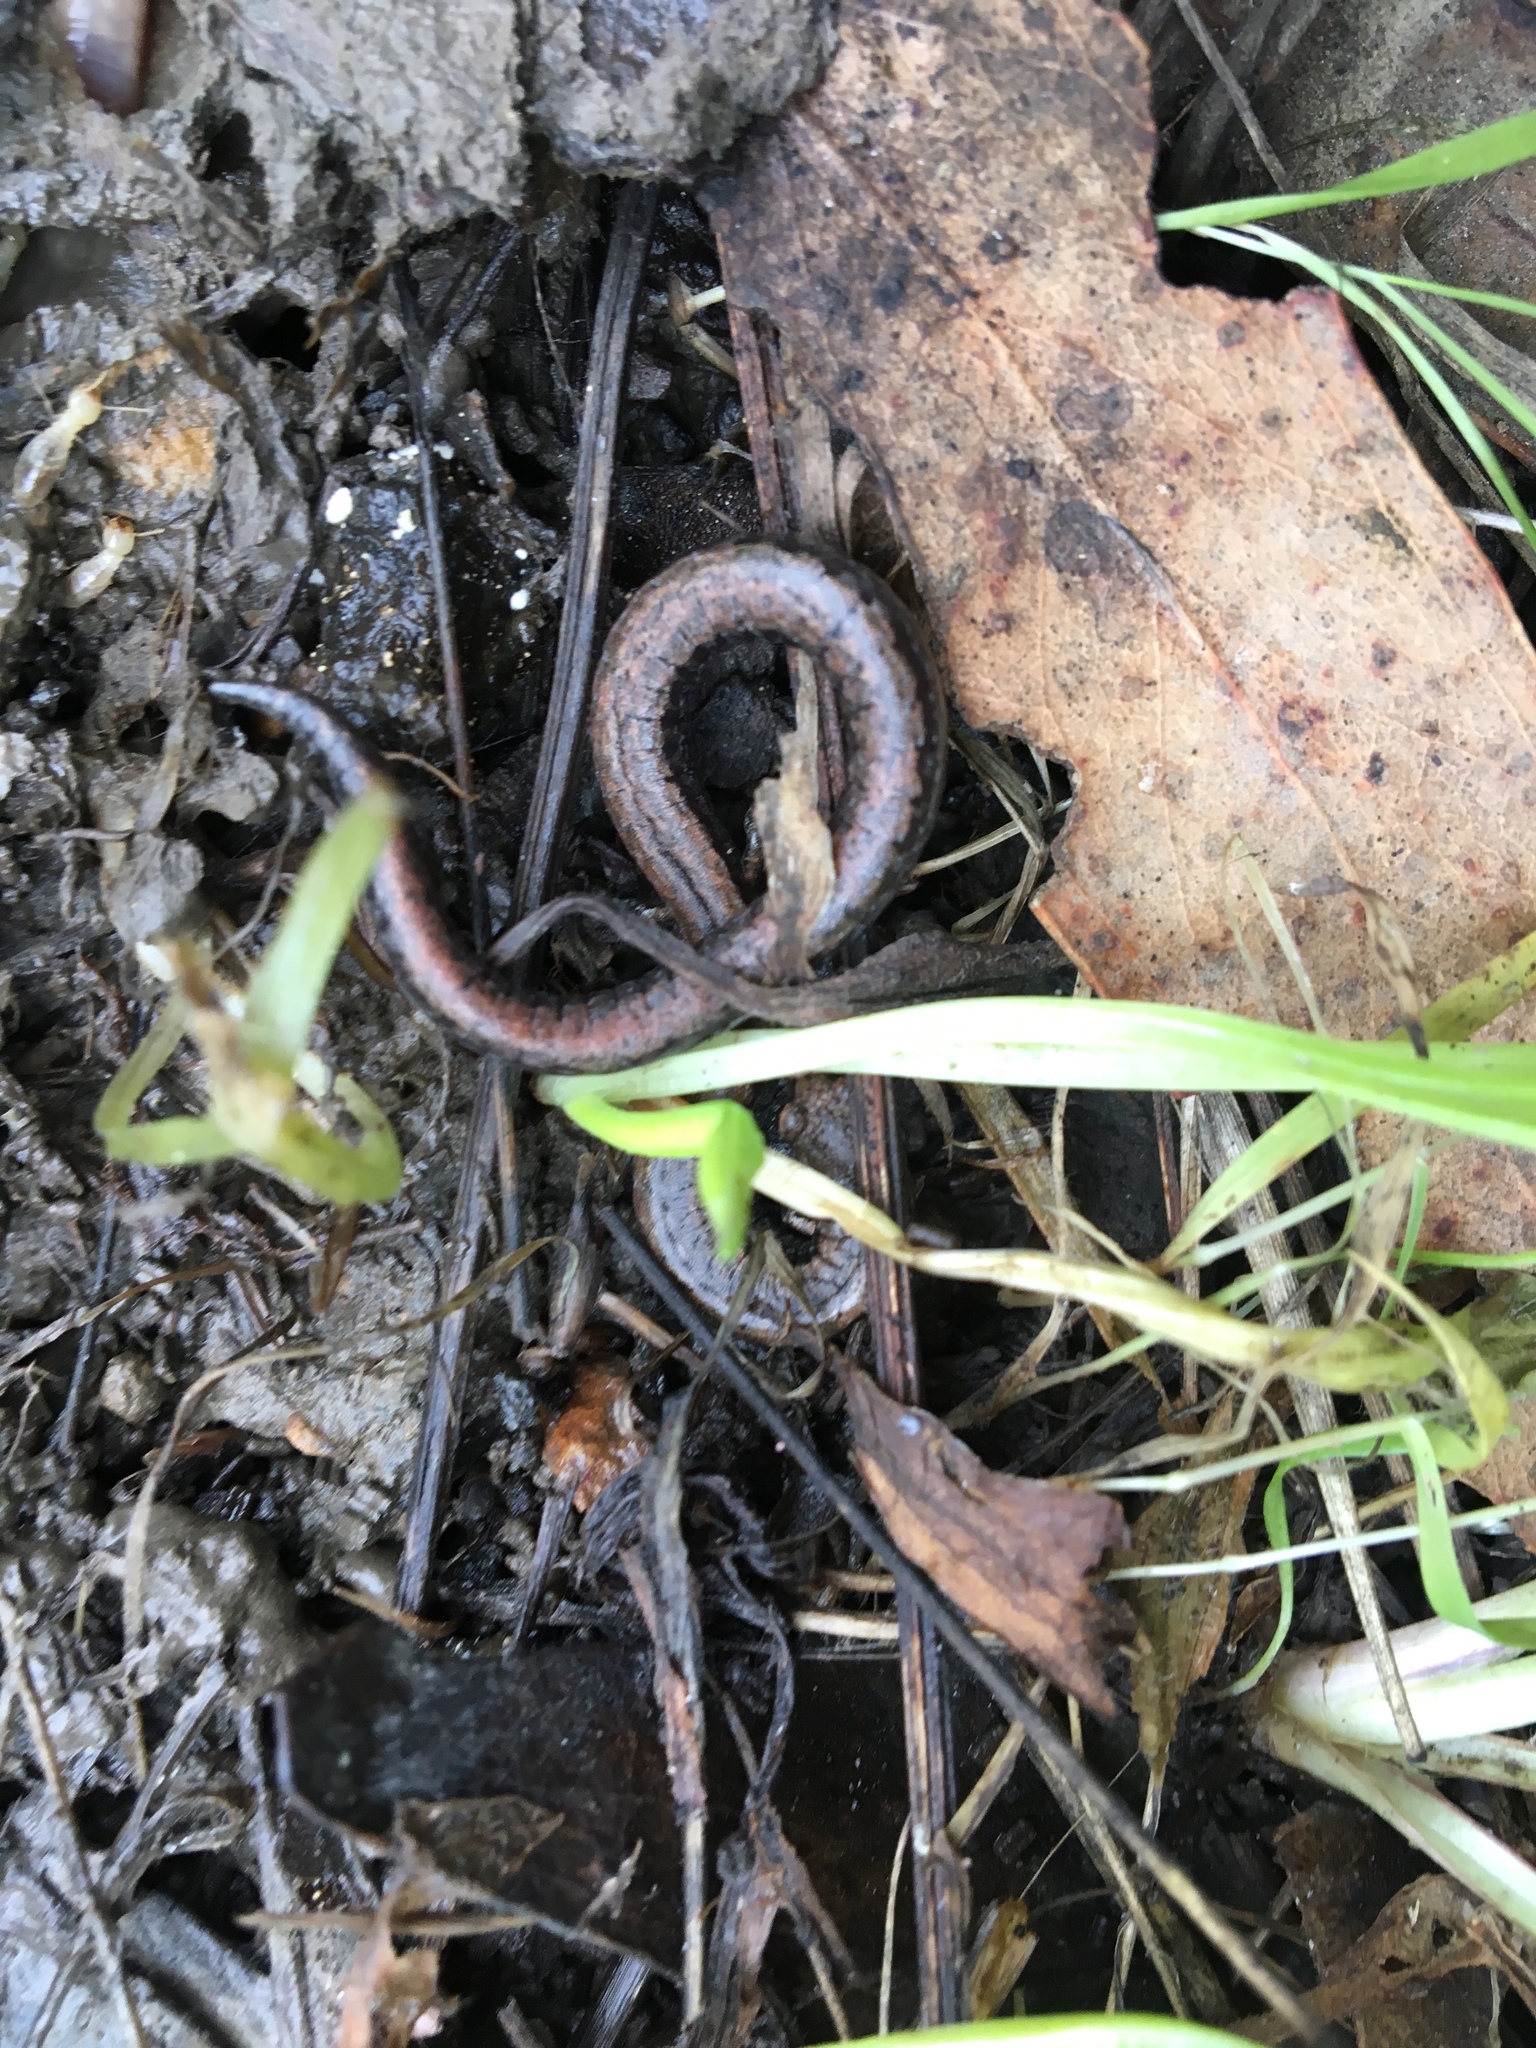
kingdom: Animalia
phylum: Chordata
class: Amphibia
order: Caudata
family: Plethodontidae
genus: Batrachoseps
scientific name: Batrachoseps nigriventris
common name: Black-bellied slender salamander
